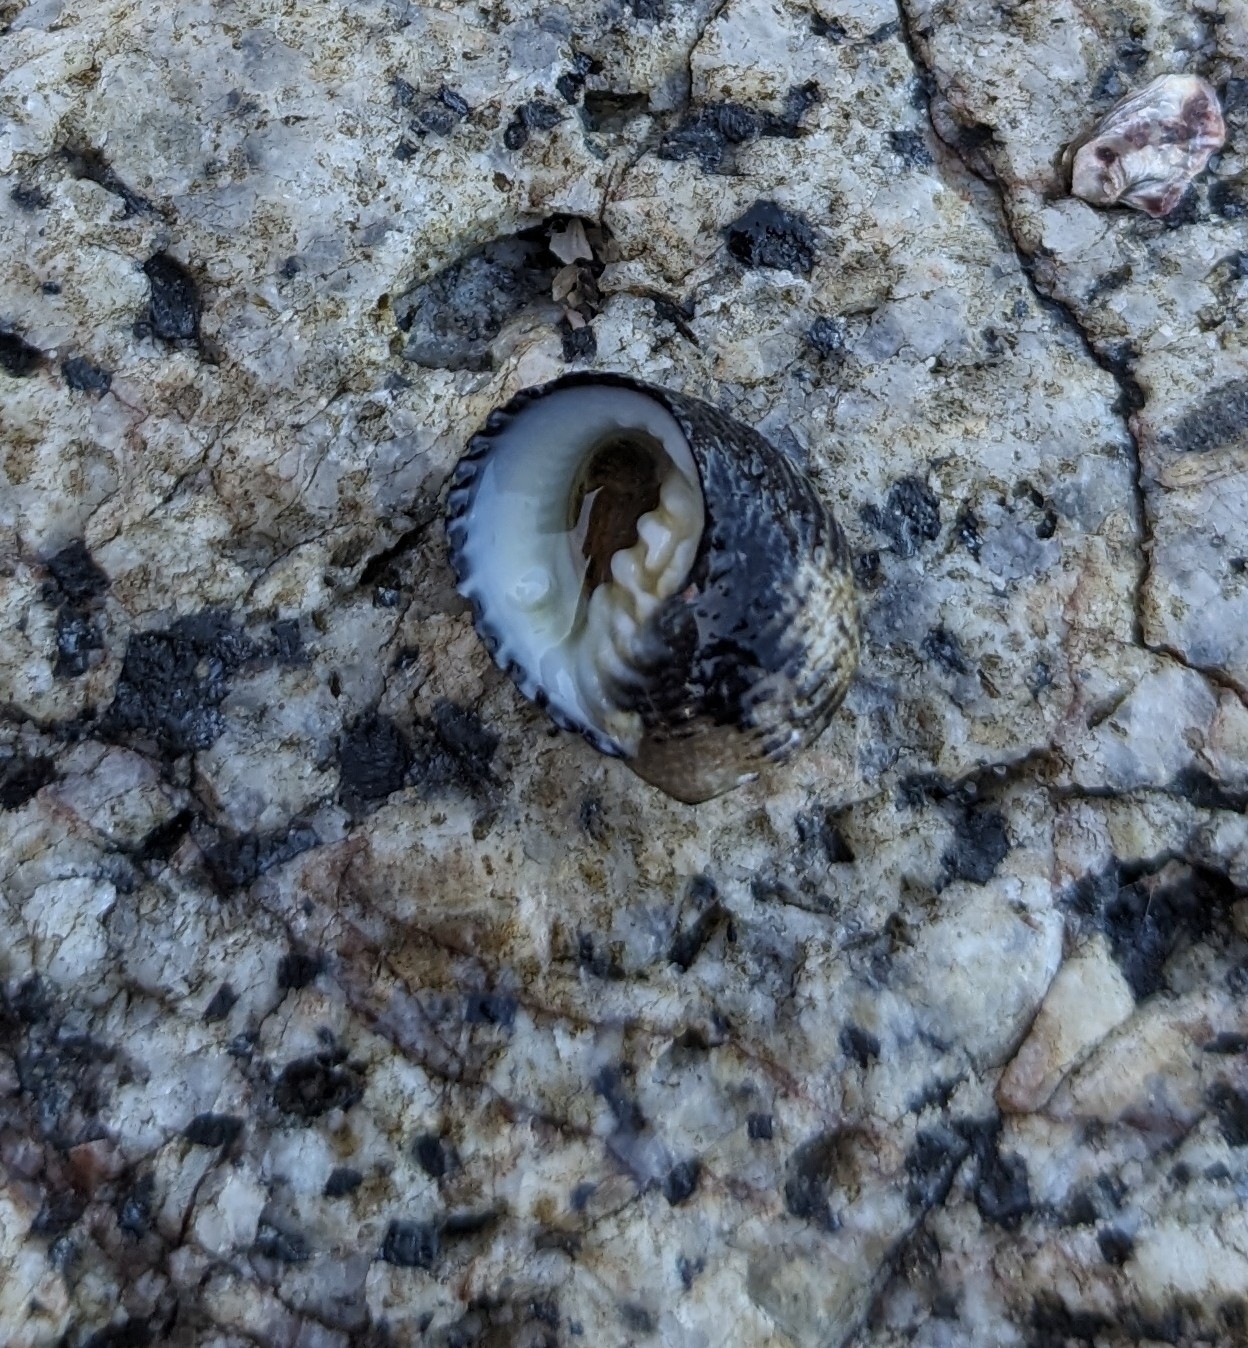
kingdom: Animalia
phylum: Mollusca
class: Gastropoda
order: Cycloneritida
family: Neritidae
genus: Nerita
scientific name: Nerita scabricosta
